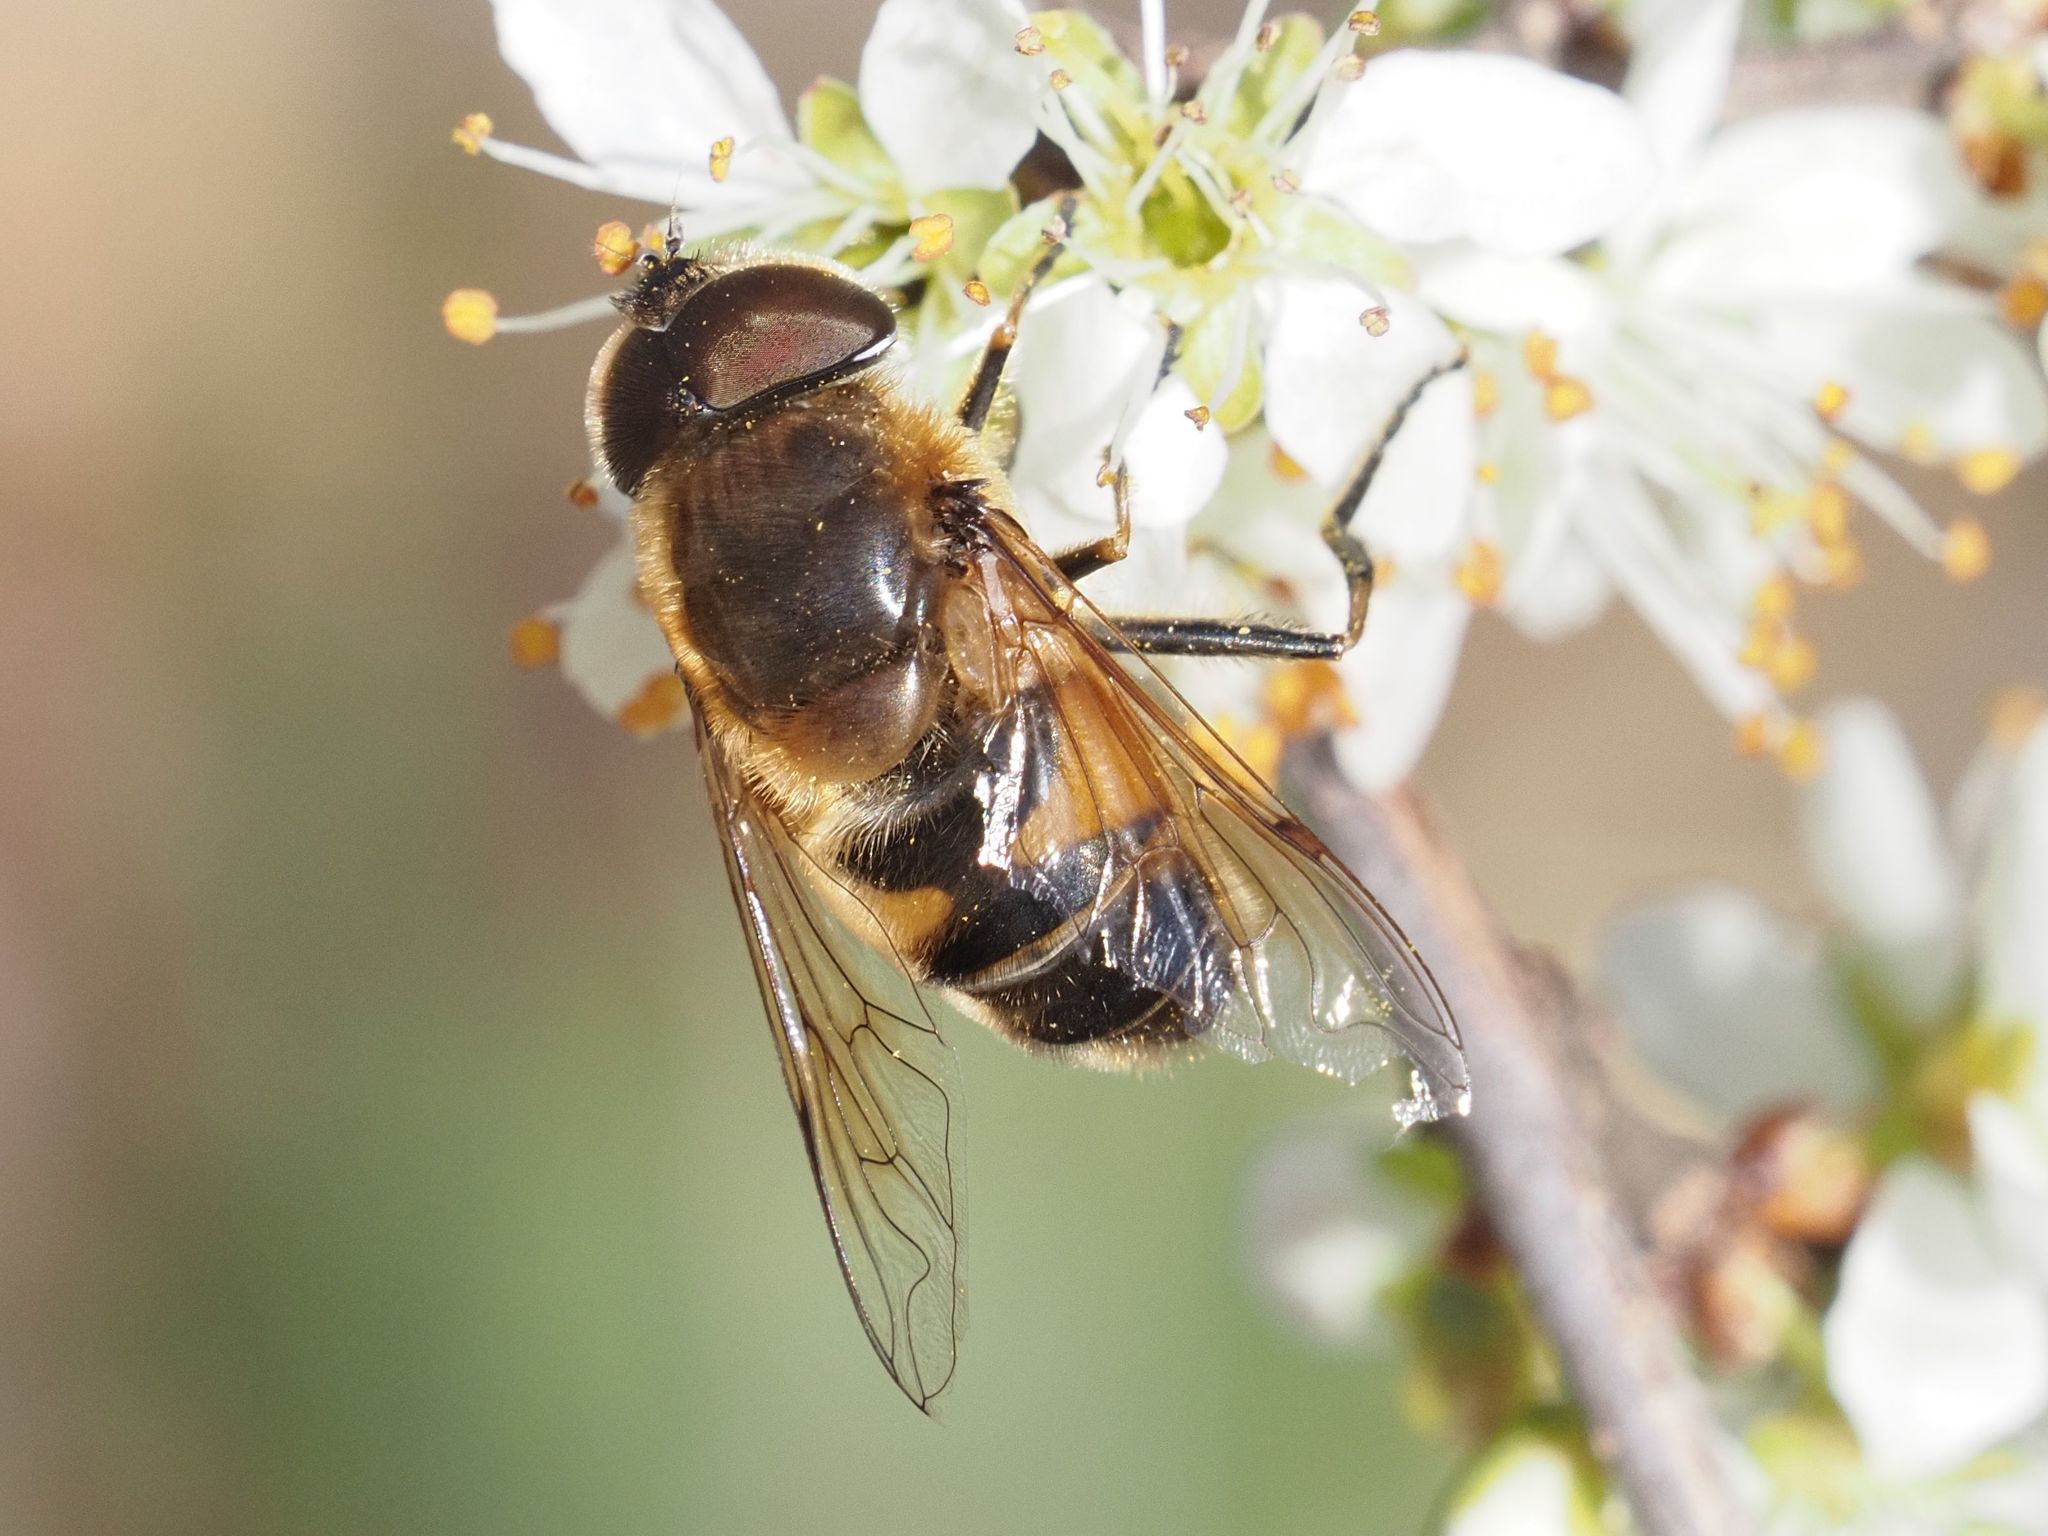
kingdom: Animalia
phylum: Arthropoda
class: Insecta
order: Diptera
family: Syrphidae
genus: Eristalis
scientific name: Eristalis pertinax
